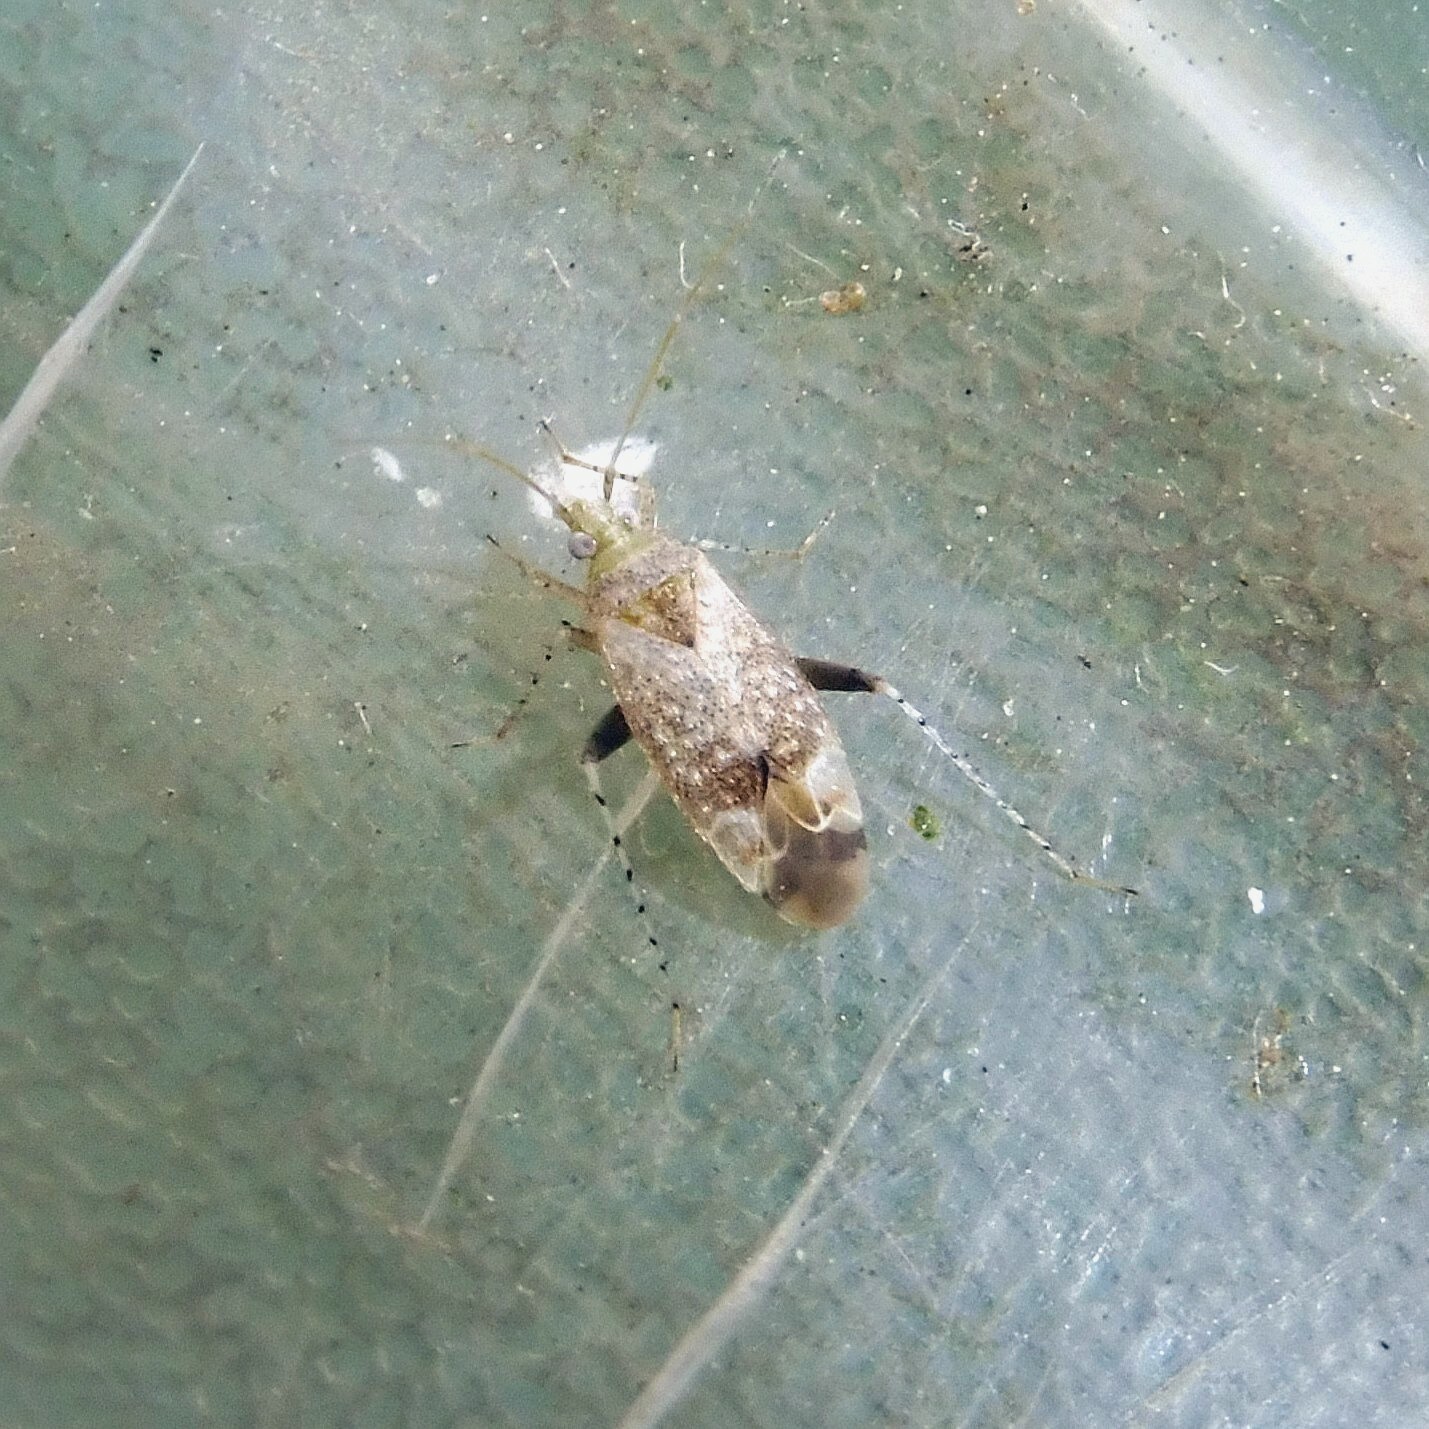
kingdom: Animalia
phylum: Arthropoda
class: Insecta
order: Hemiptera
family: Miridae
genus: Compsidolon
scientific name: Compsidolon salicellum
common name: Plant bug
